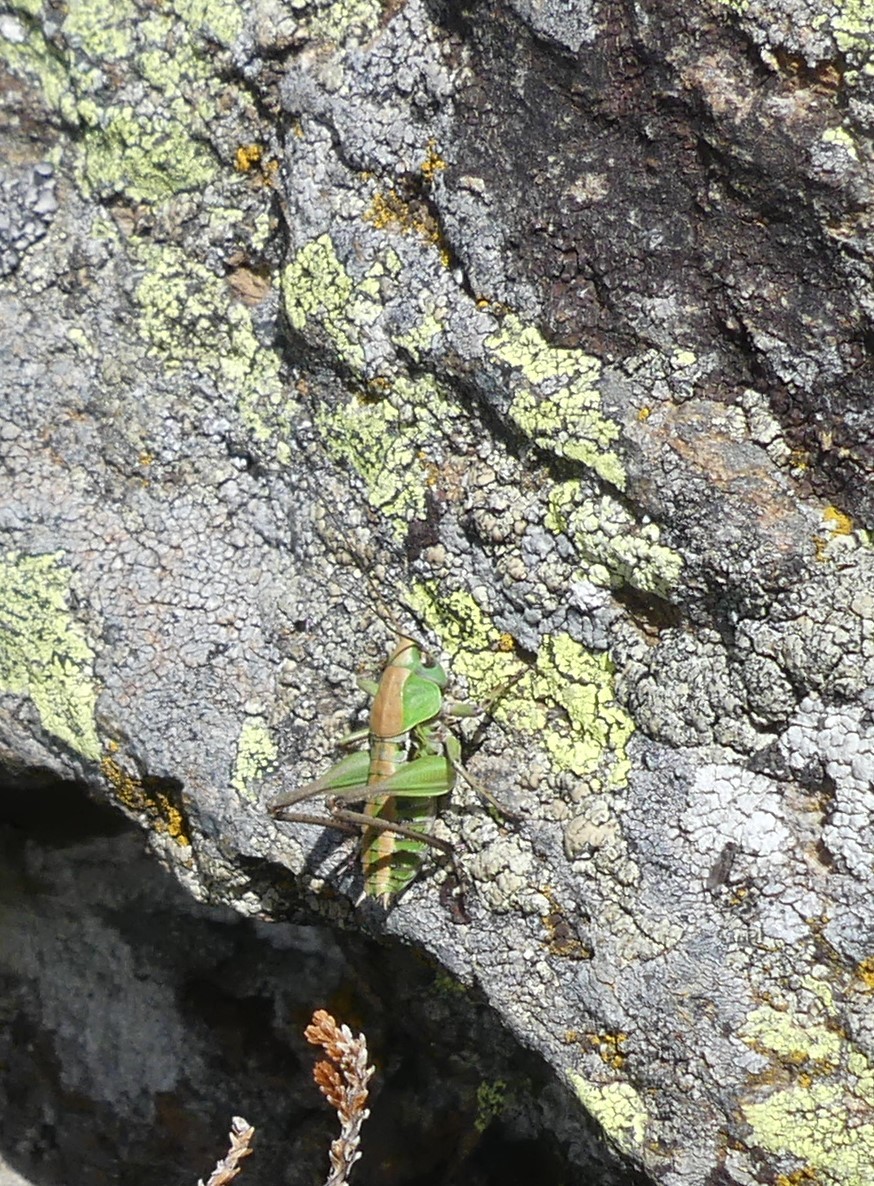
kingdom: Animalia
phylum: Arthropoda
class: Insecta
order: Orthoptera
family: Tettigoniidae
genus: Decticus
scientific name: Decticus verrucivorus
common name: Wart-biter
